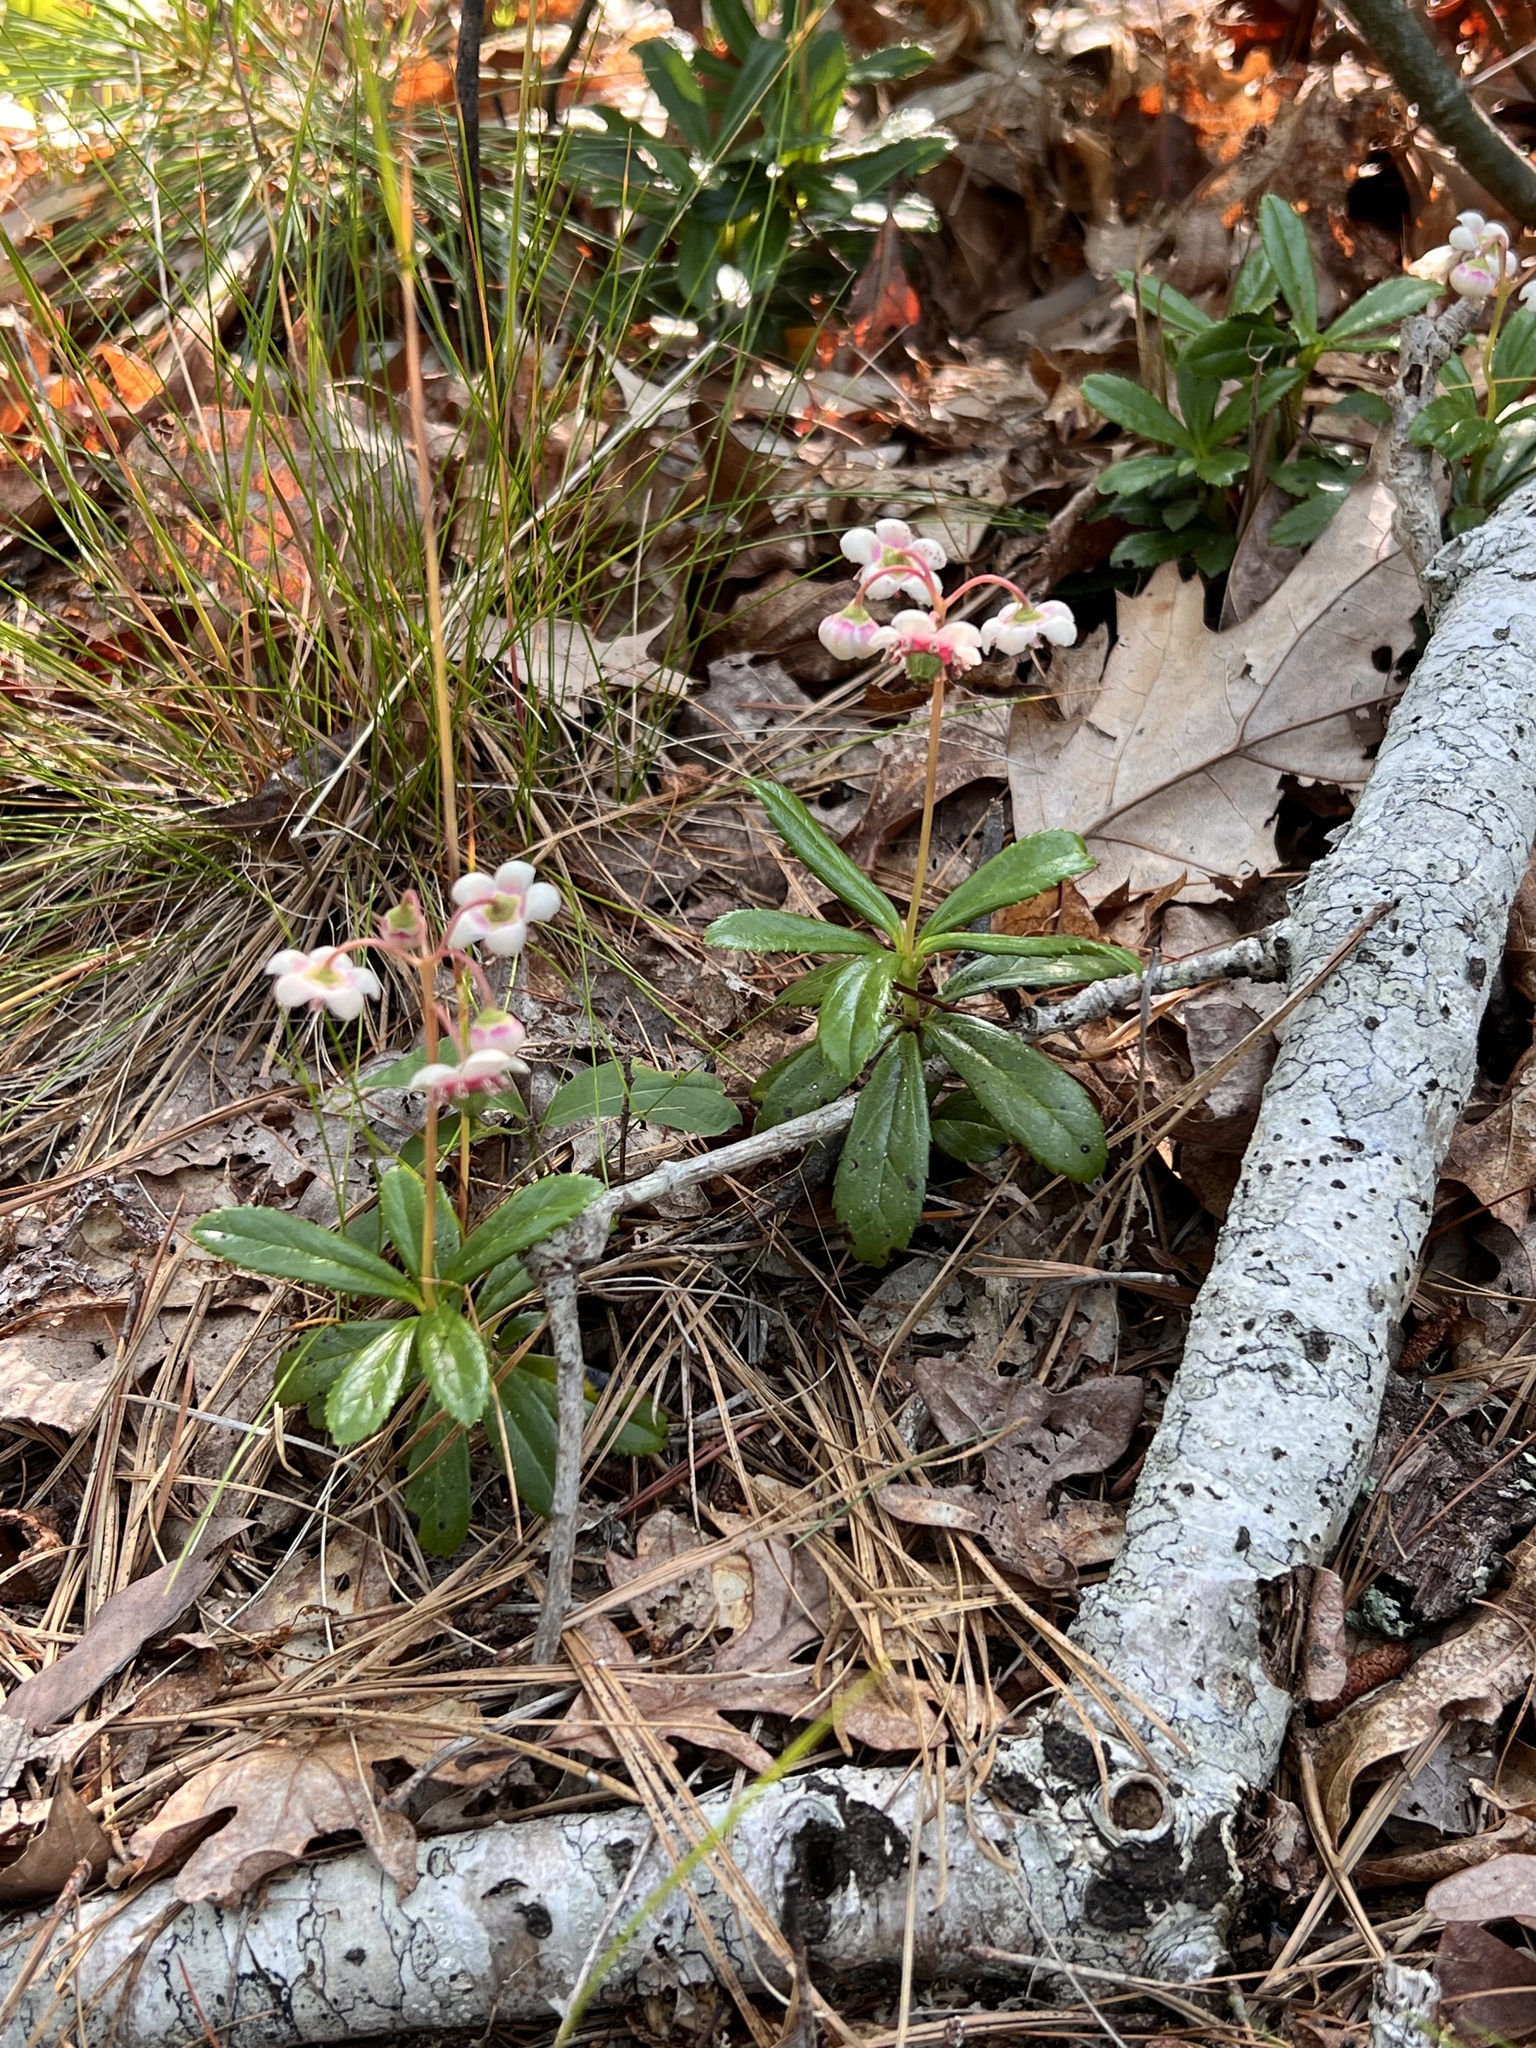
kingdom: Plantae
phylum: Tracheophyta
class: Magnoliopsida
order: Ericales
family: Ericaceae
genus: Chimaphila
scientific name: Chimaphila umbellata
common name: Pipsissewa
